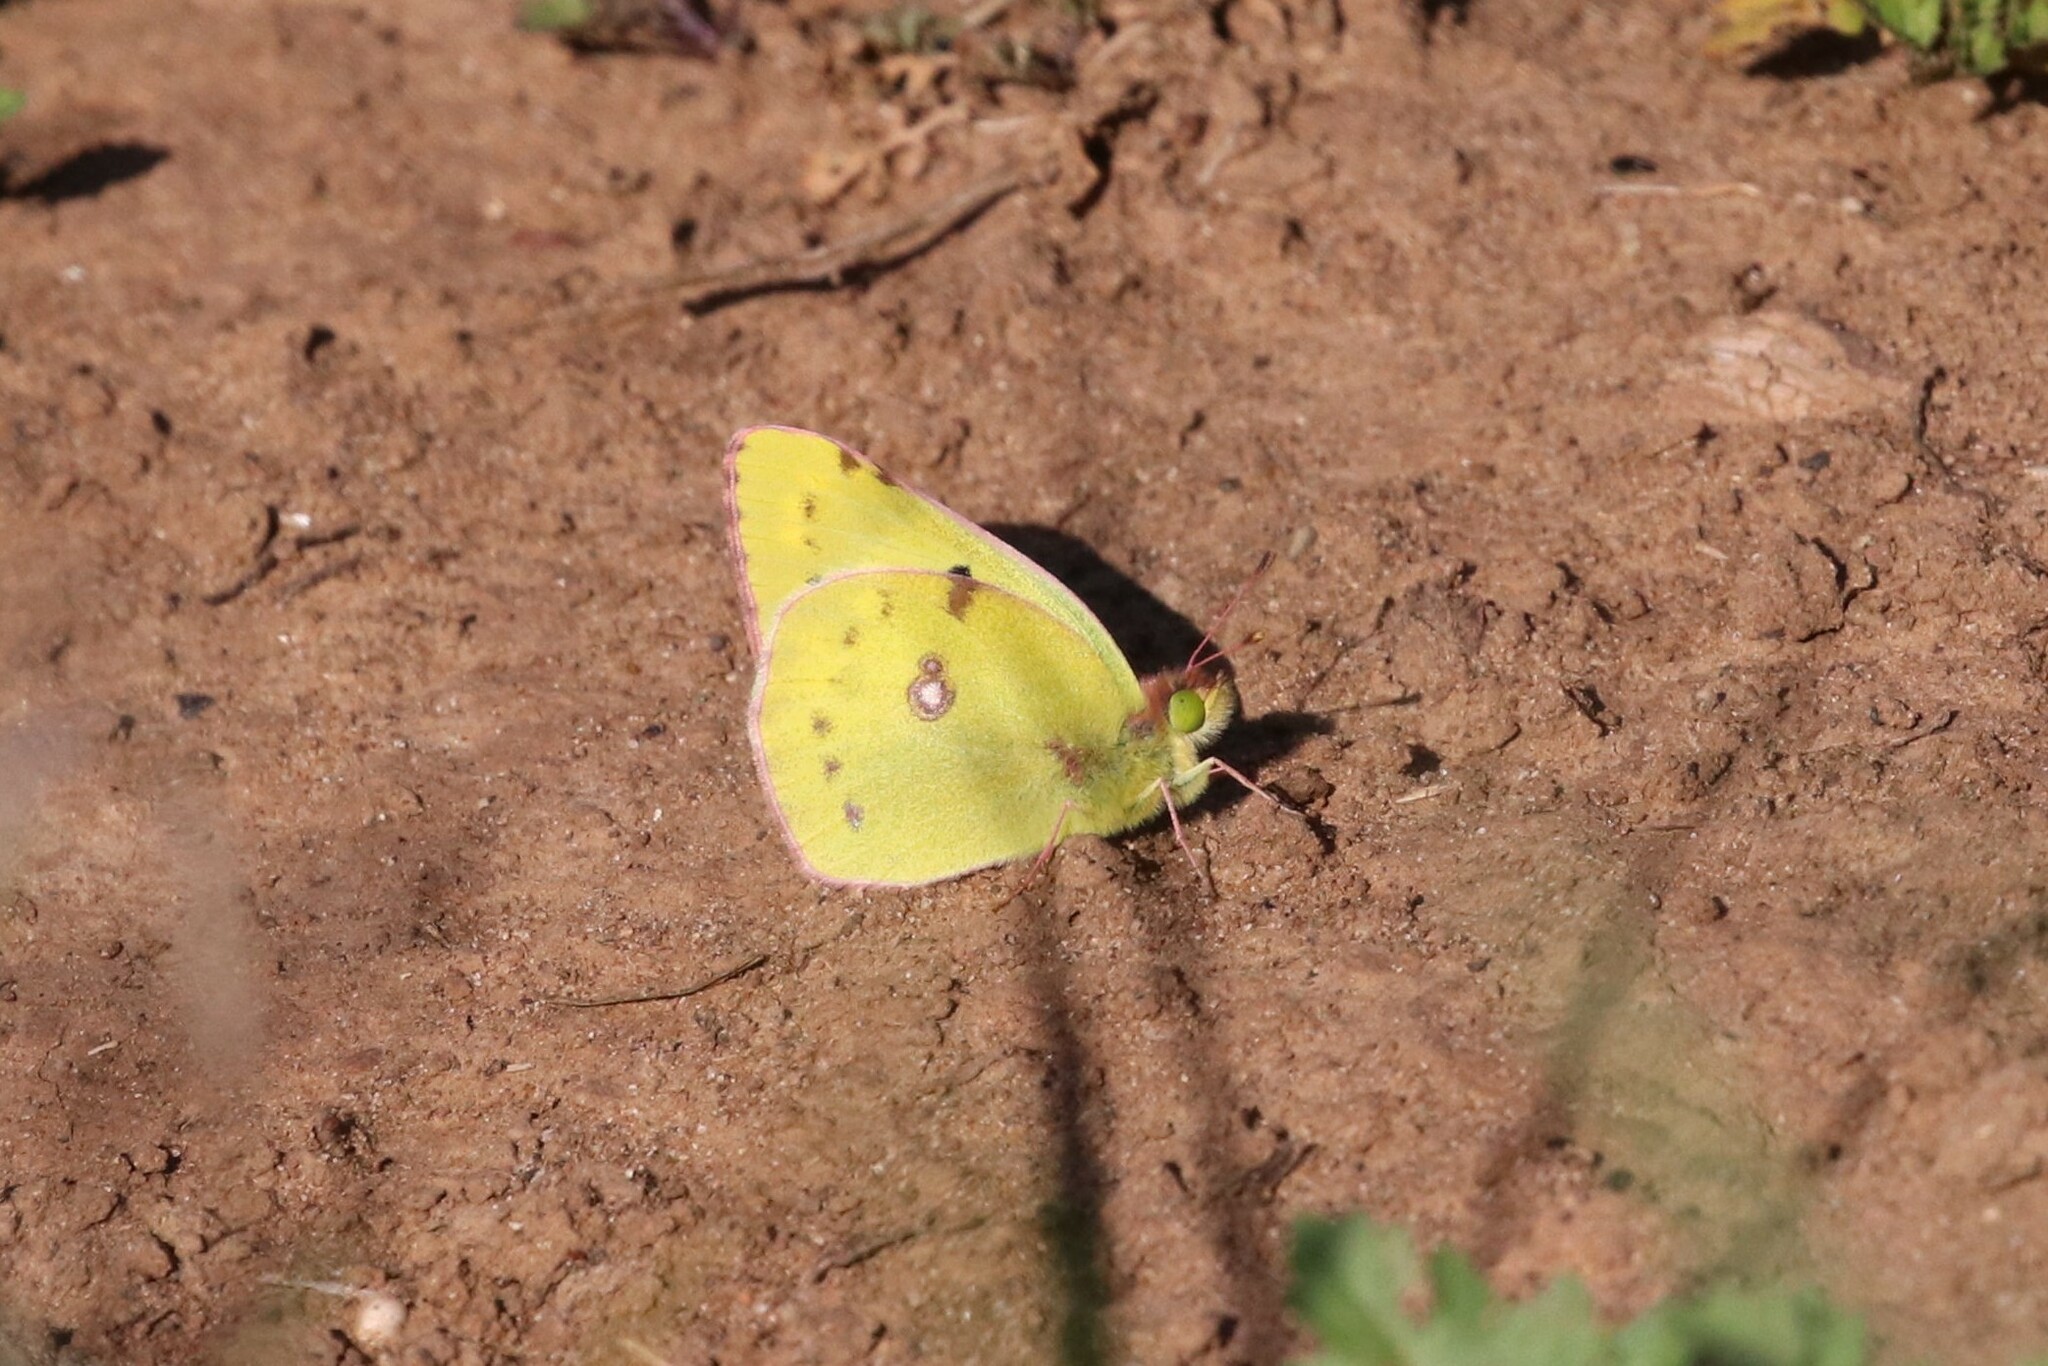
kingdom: Animalia
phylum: Arthropoda
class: Insecta
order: Lepidoptera
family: Pieridae
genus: Colias
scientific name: Colias hyale
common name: Pale clouded yellow
